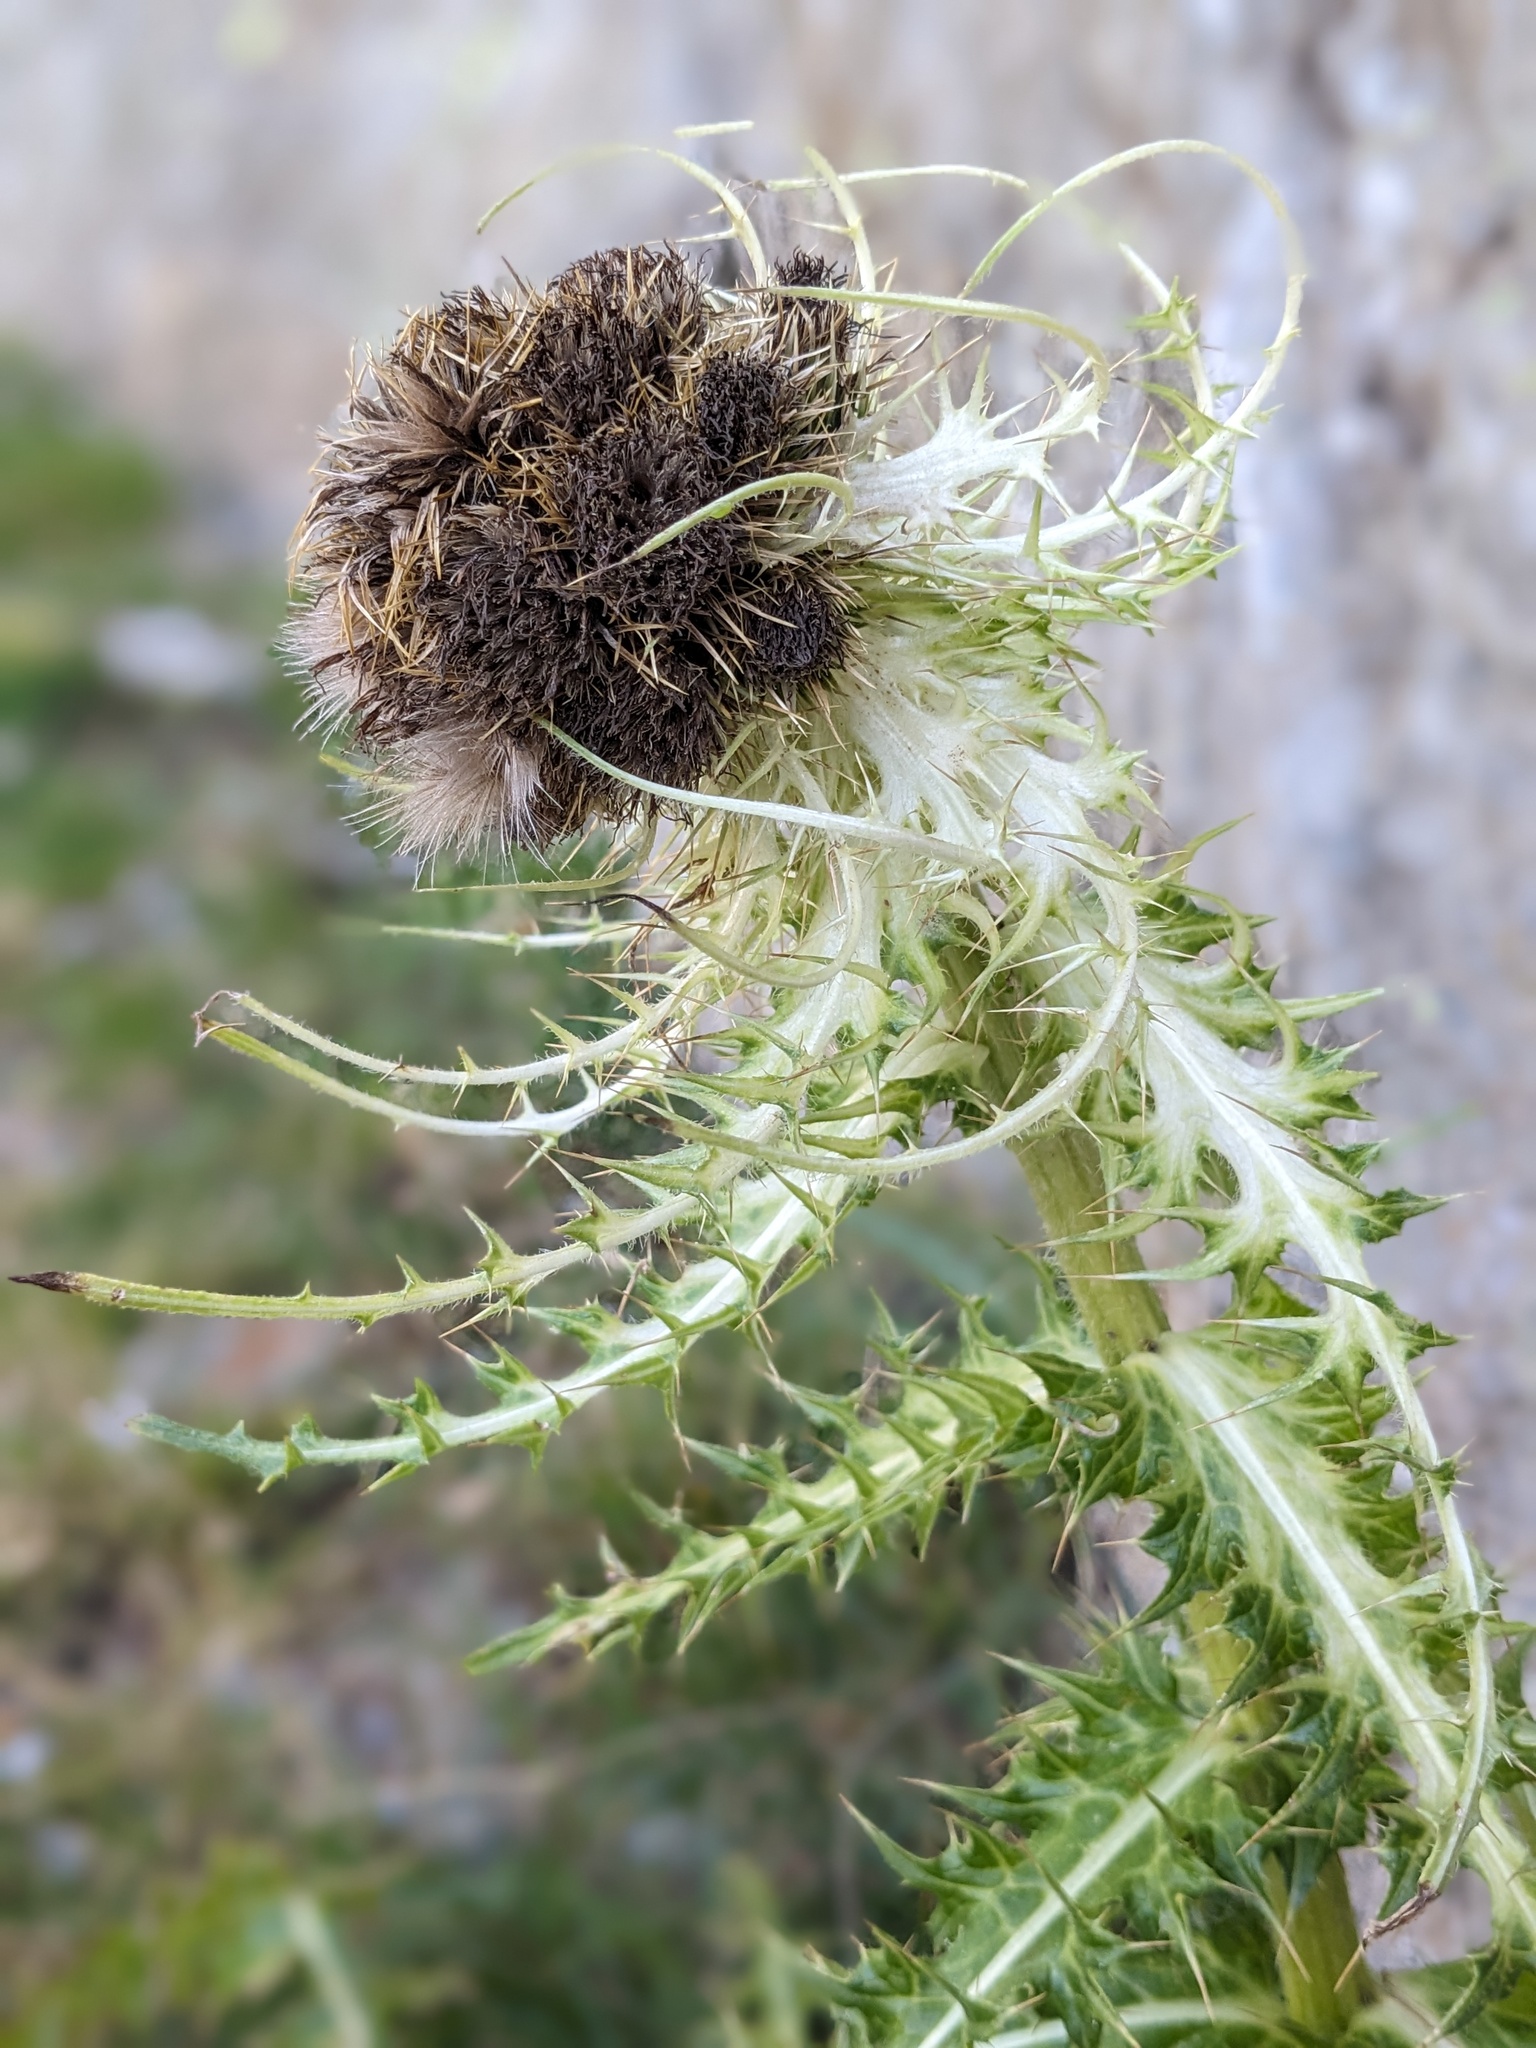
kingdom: Plantae
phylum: Tracheophyta
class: Magnoliopsida
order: Asterales
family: Asteraceae
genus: Cirsium
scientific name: Cirsium spinosissimum
